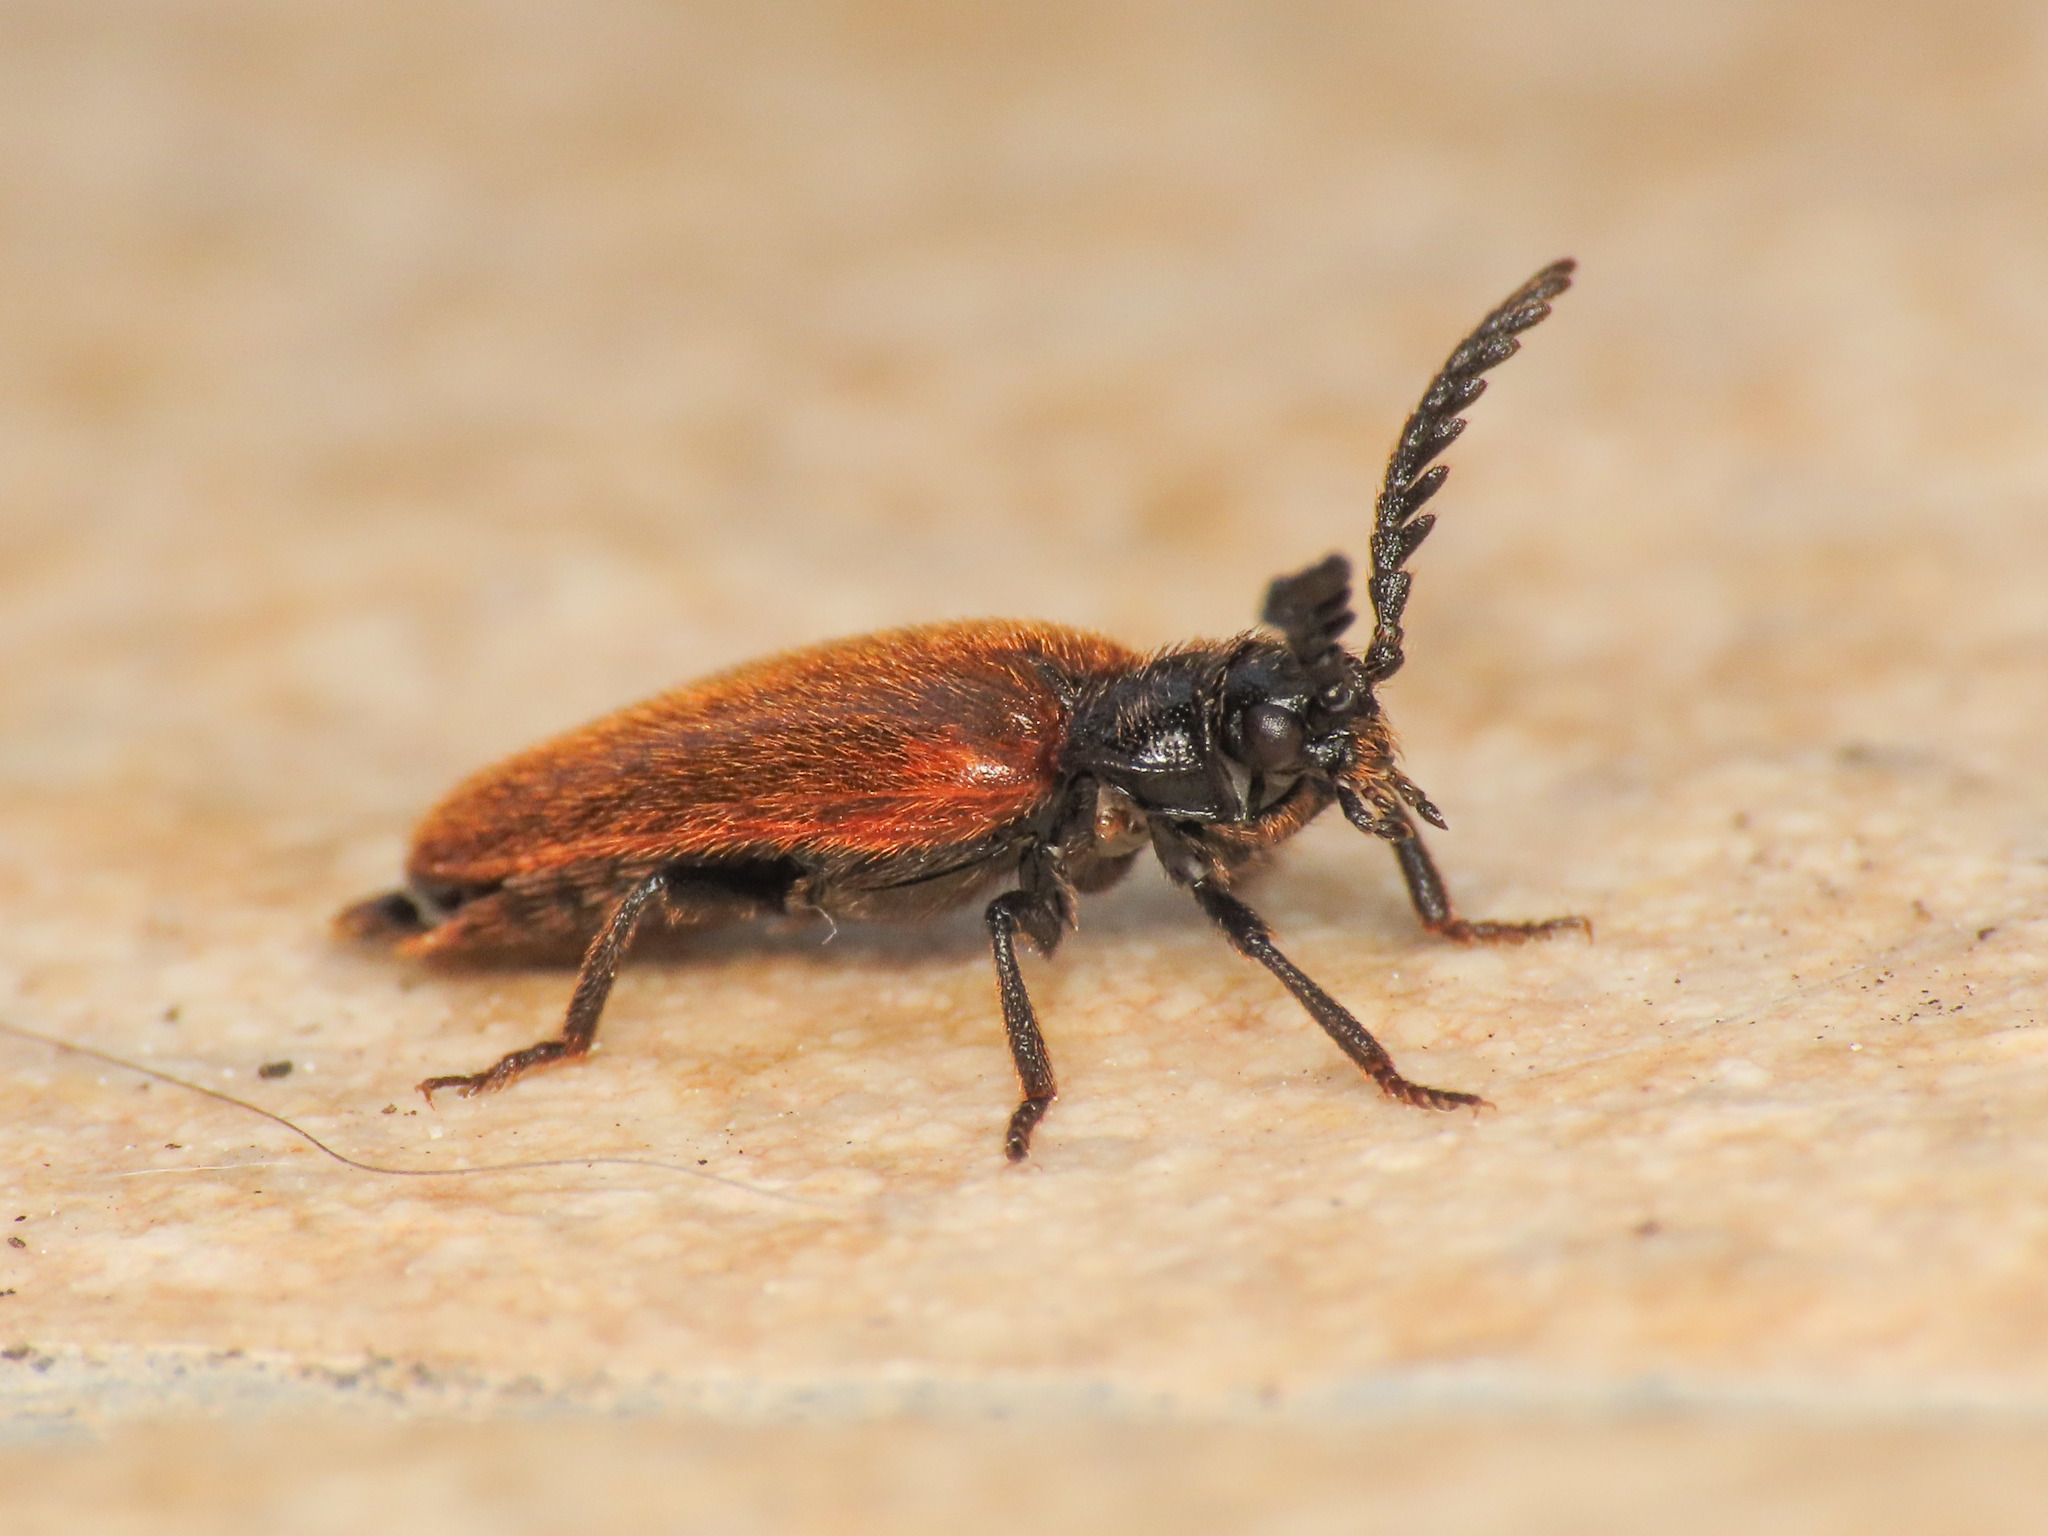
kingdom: Animalia
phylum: Arthropoda
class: Insecta
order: Coleoptera
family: Drilidae
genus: Drilus
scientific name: Drilus flavescens
